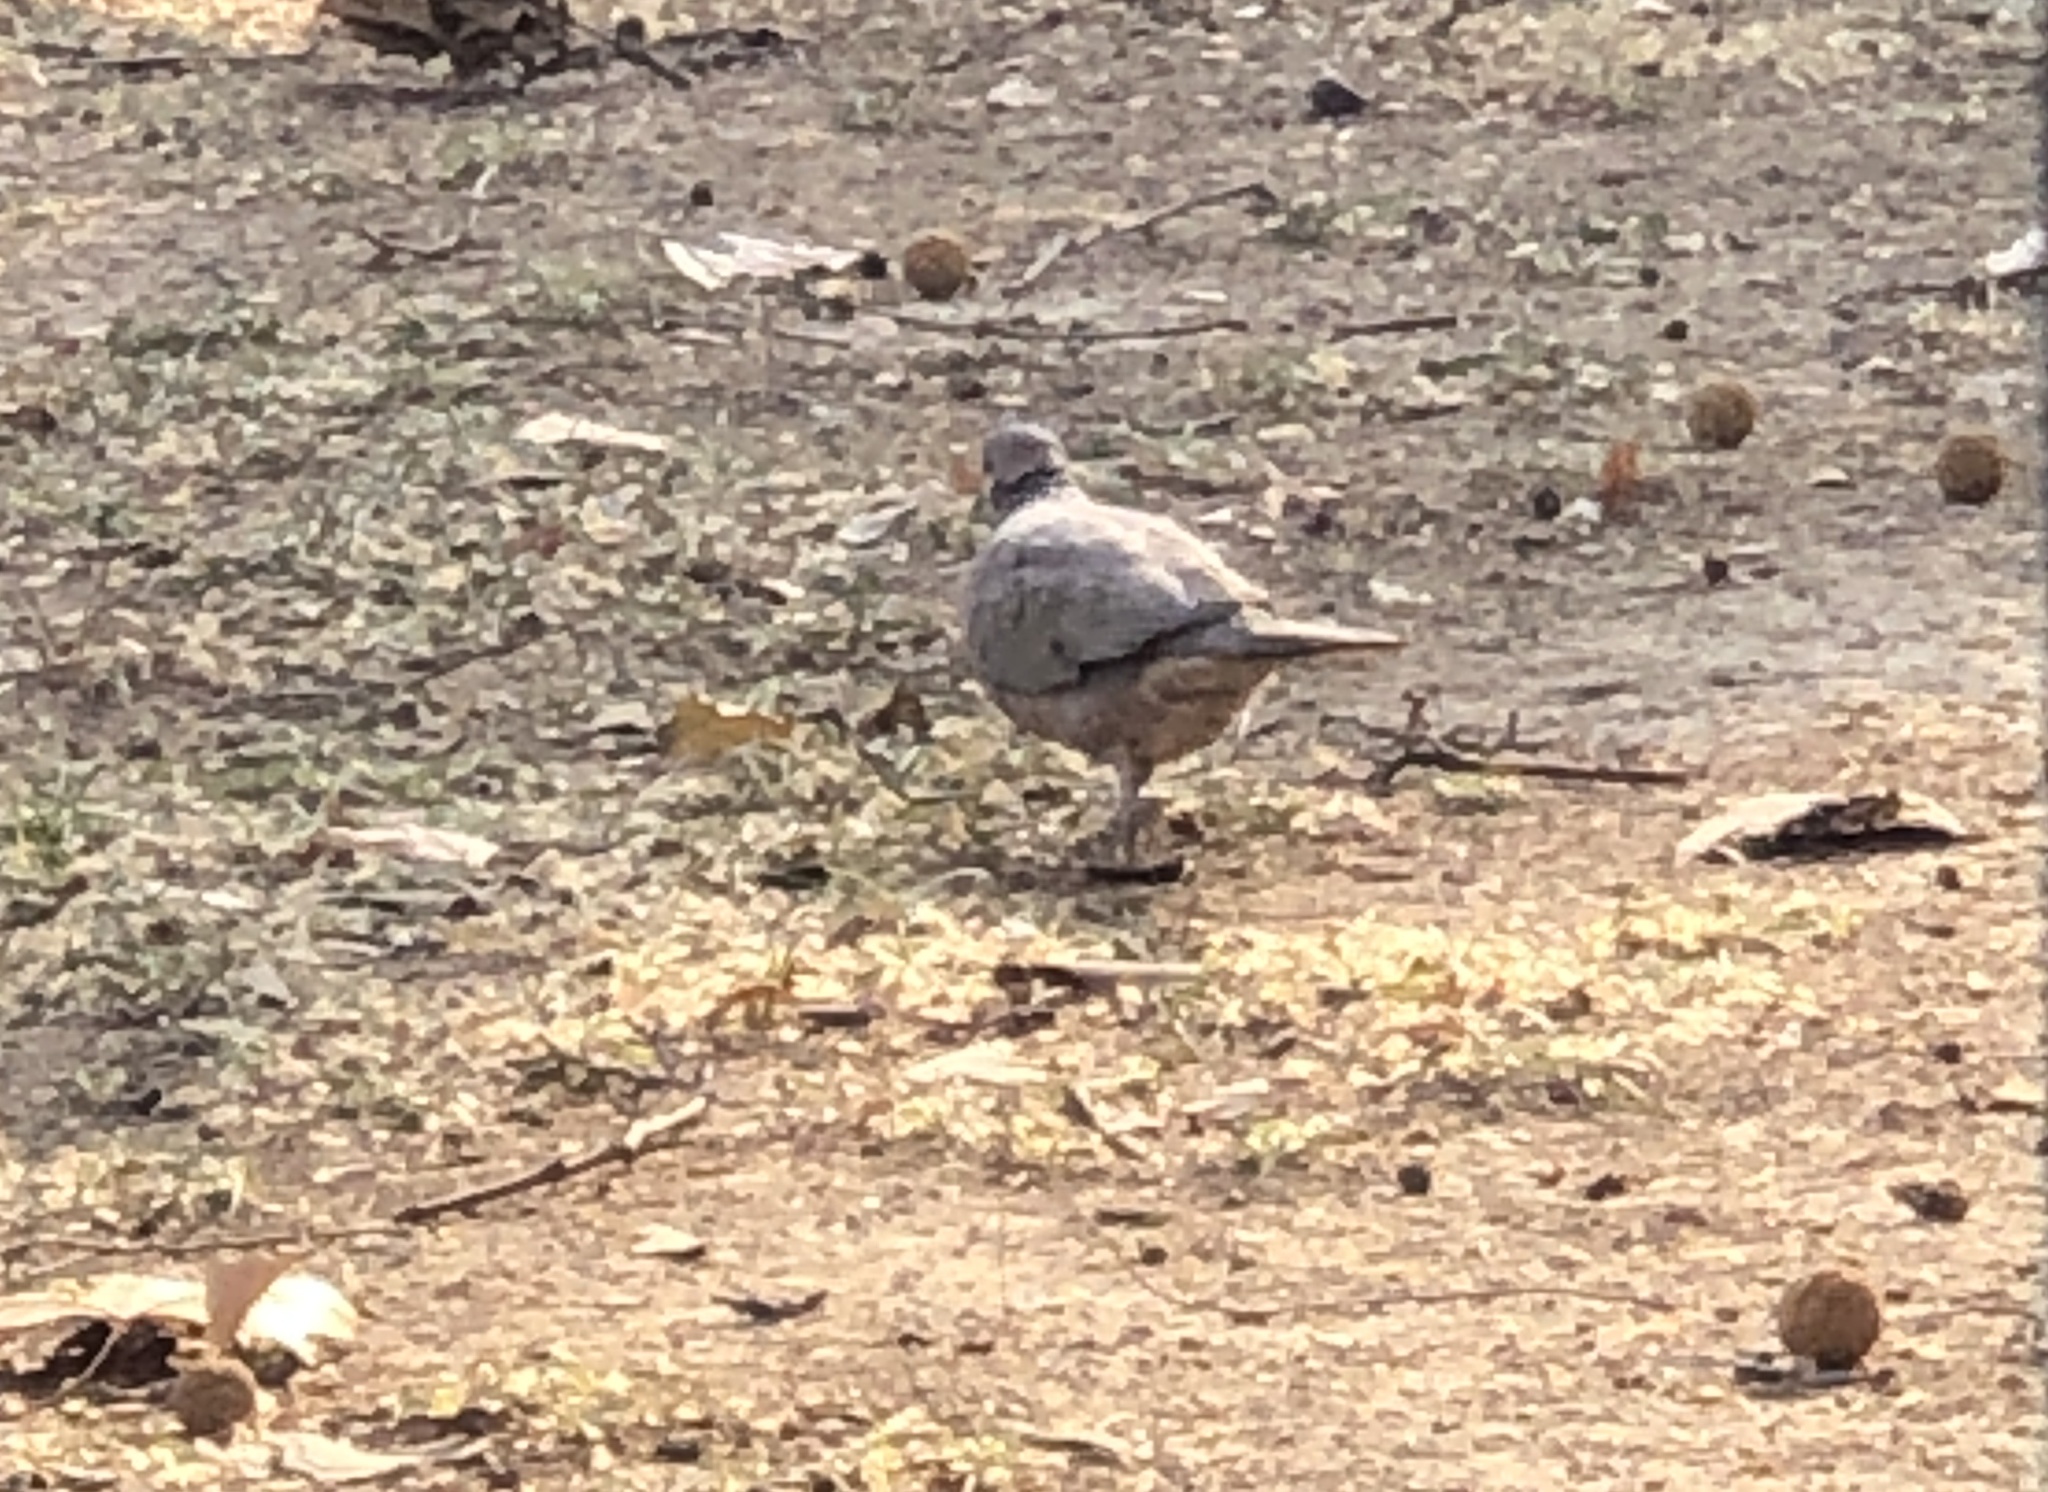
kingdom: Animalia
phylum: Chordata
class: Aves
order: Columbiformes
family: Columbidae
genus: Spilopelia
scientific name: Spilopelia chinensis
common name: Spotted dove
